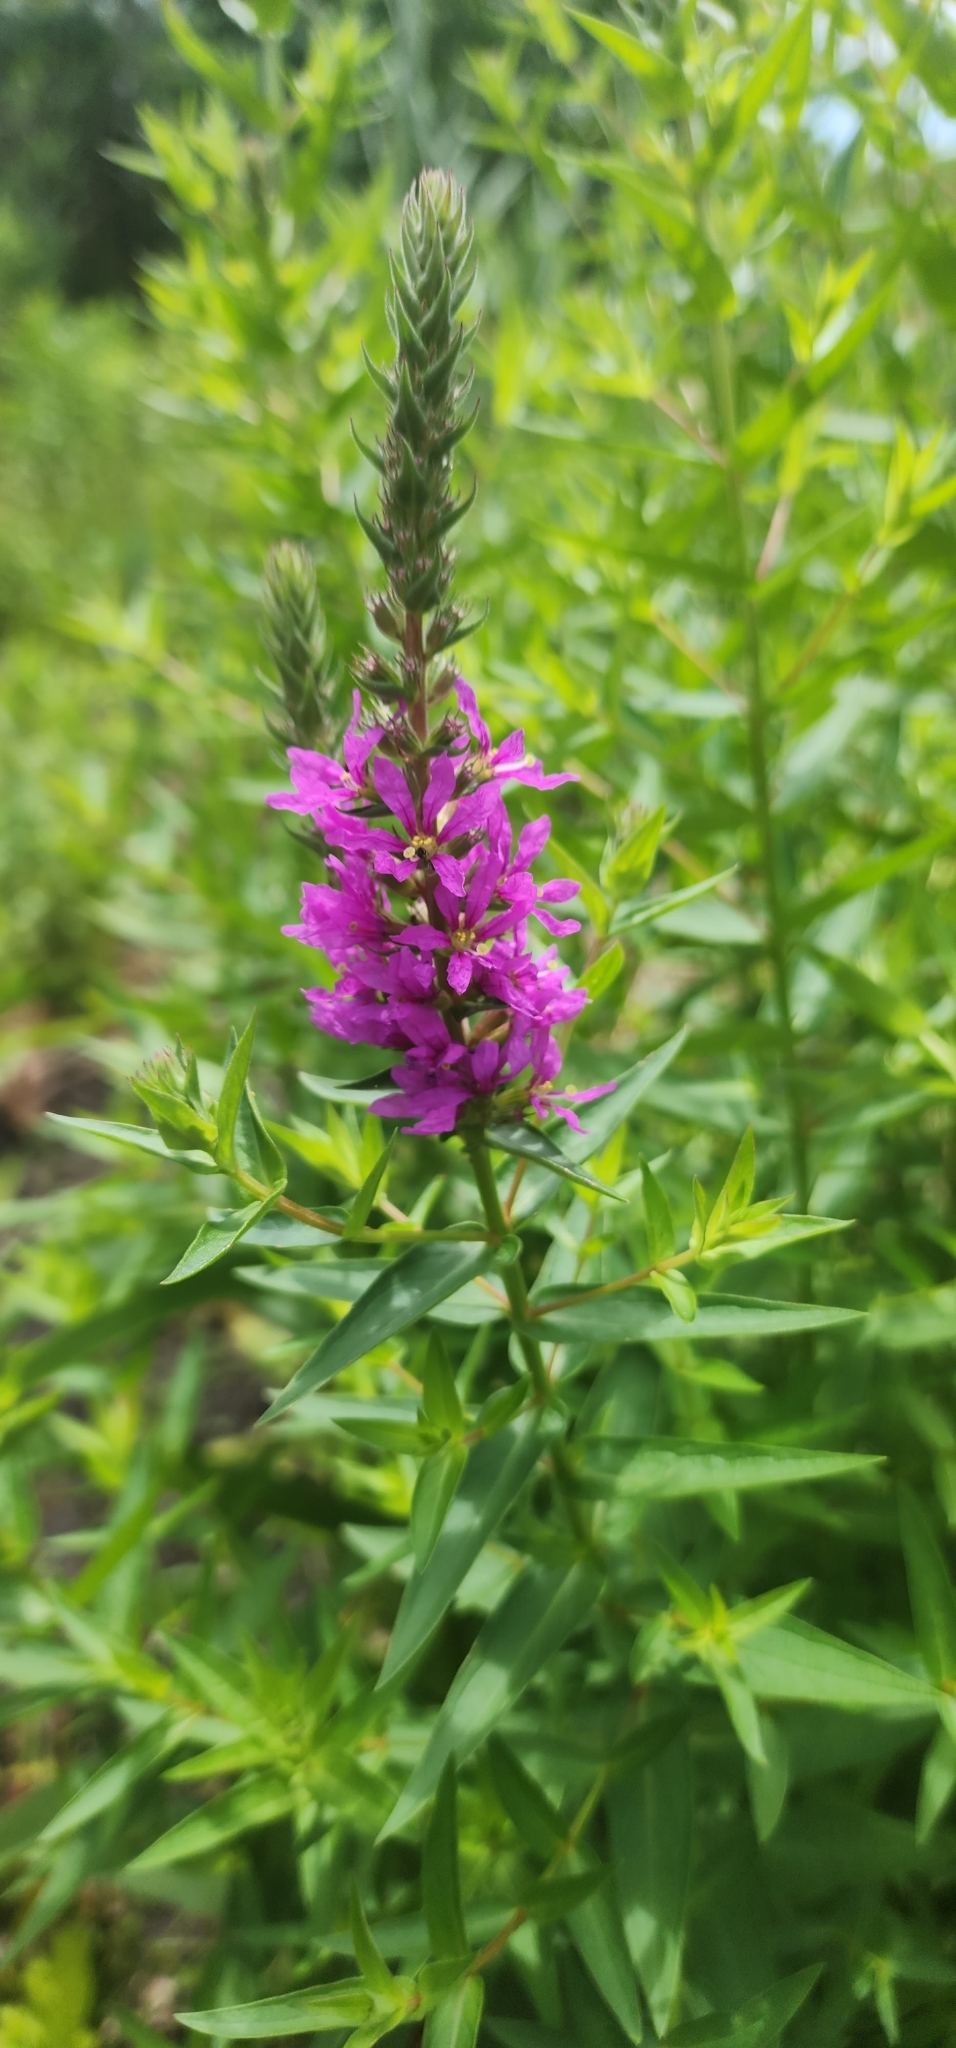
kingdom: Plantae
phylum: Tracheophyta
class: Magnoliopsida
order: Myrtales
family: Lythraceae
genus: Lythrum
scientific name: Lythrum salicaria
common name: Purple loosestrife
